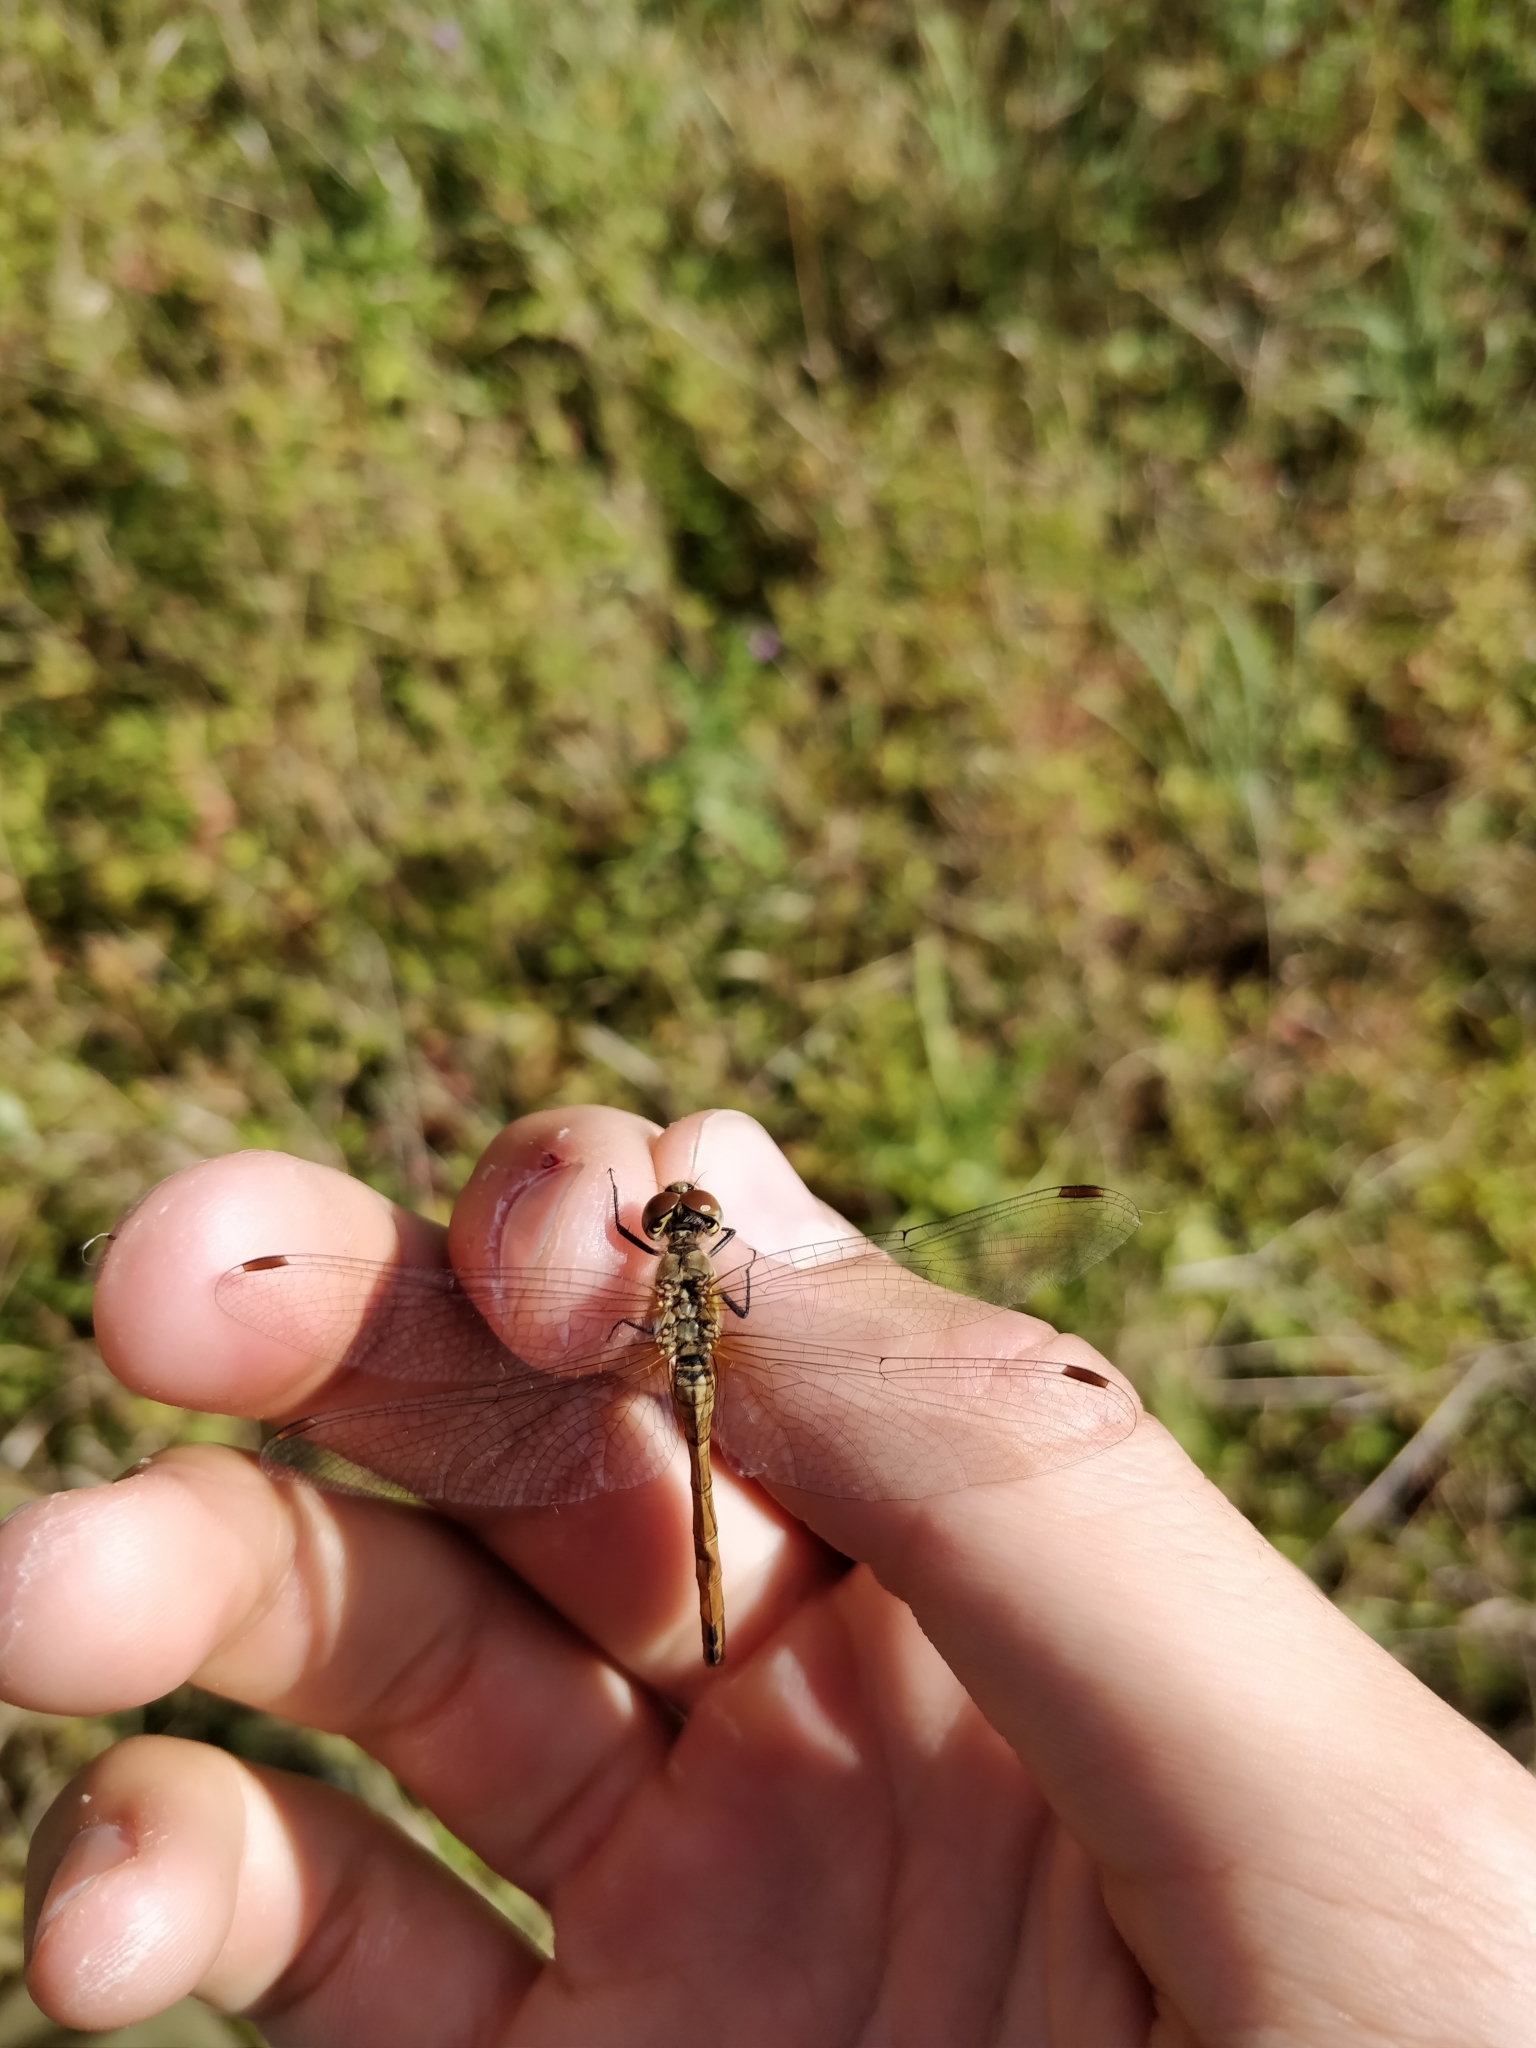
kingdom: Animalia
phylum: Arthropoda
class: Insecta
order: Odonata
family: Libellulidae
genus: Sympetrum
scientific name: Sympetrum sanguineum
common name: Ruddy darter
